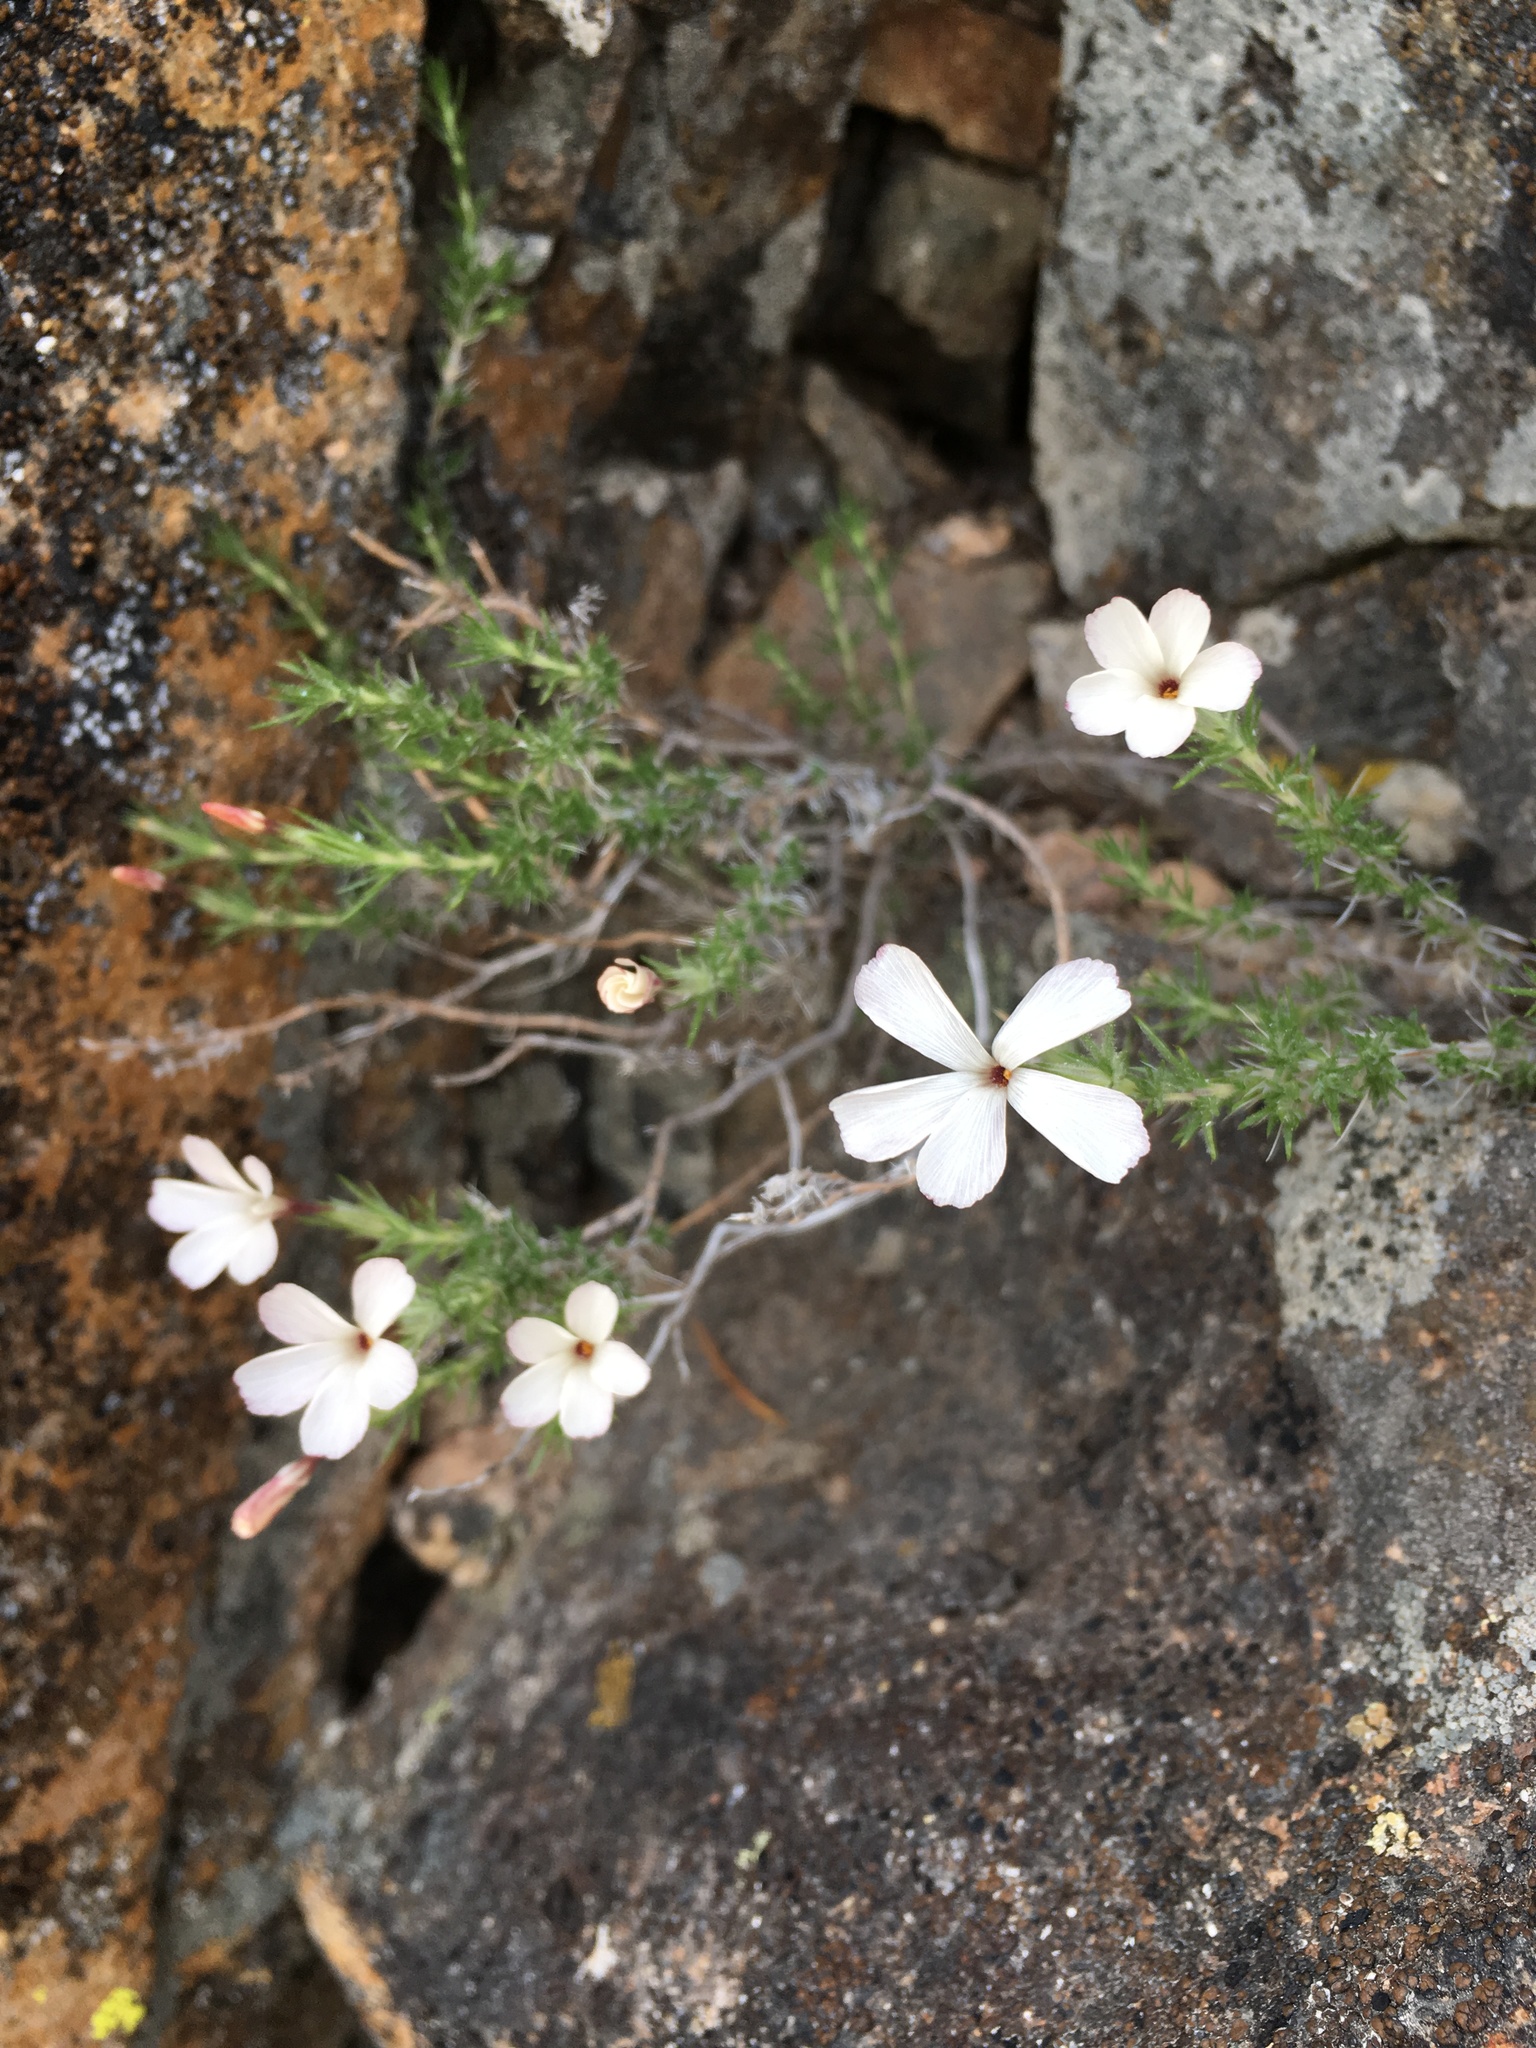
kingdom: Plantae
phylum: Tracheophyta
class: Magnoliopsida
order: Ericales
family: Polemoniaceae
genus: Linanthus
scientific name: Linanthus pungens
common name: Granite prickly phlox
